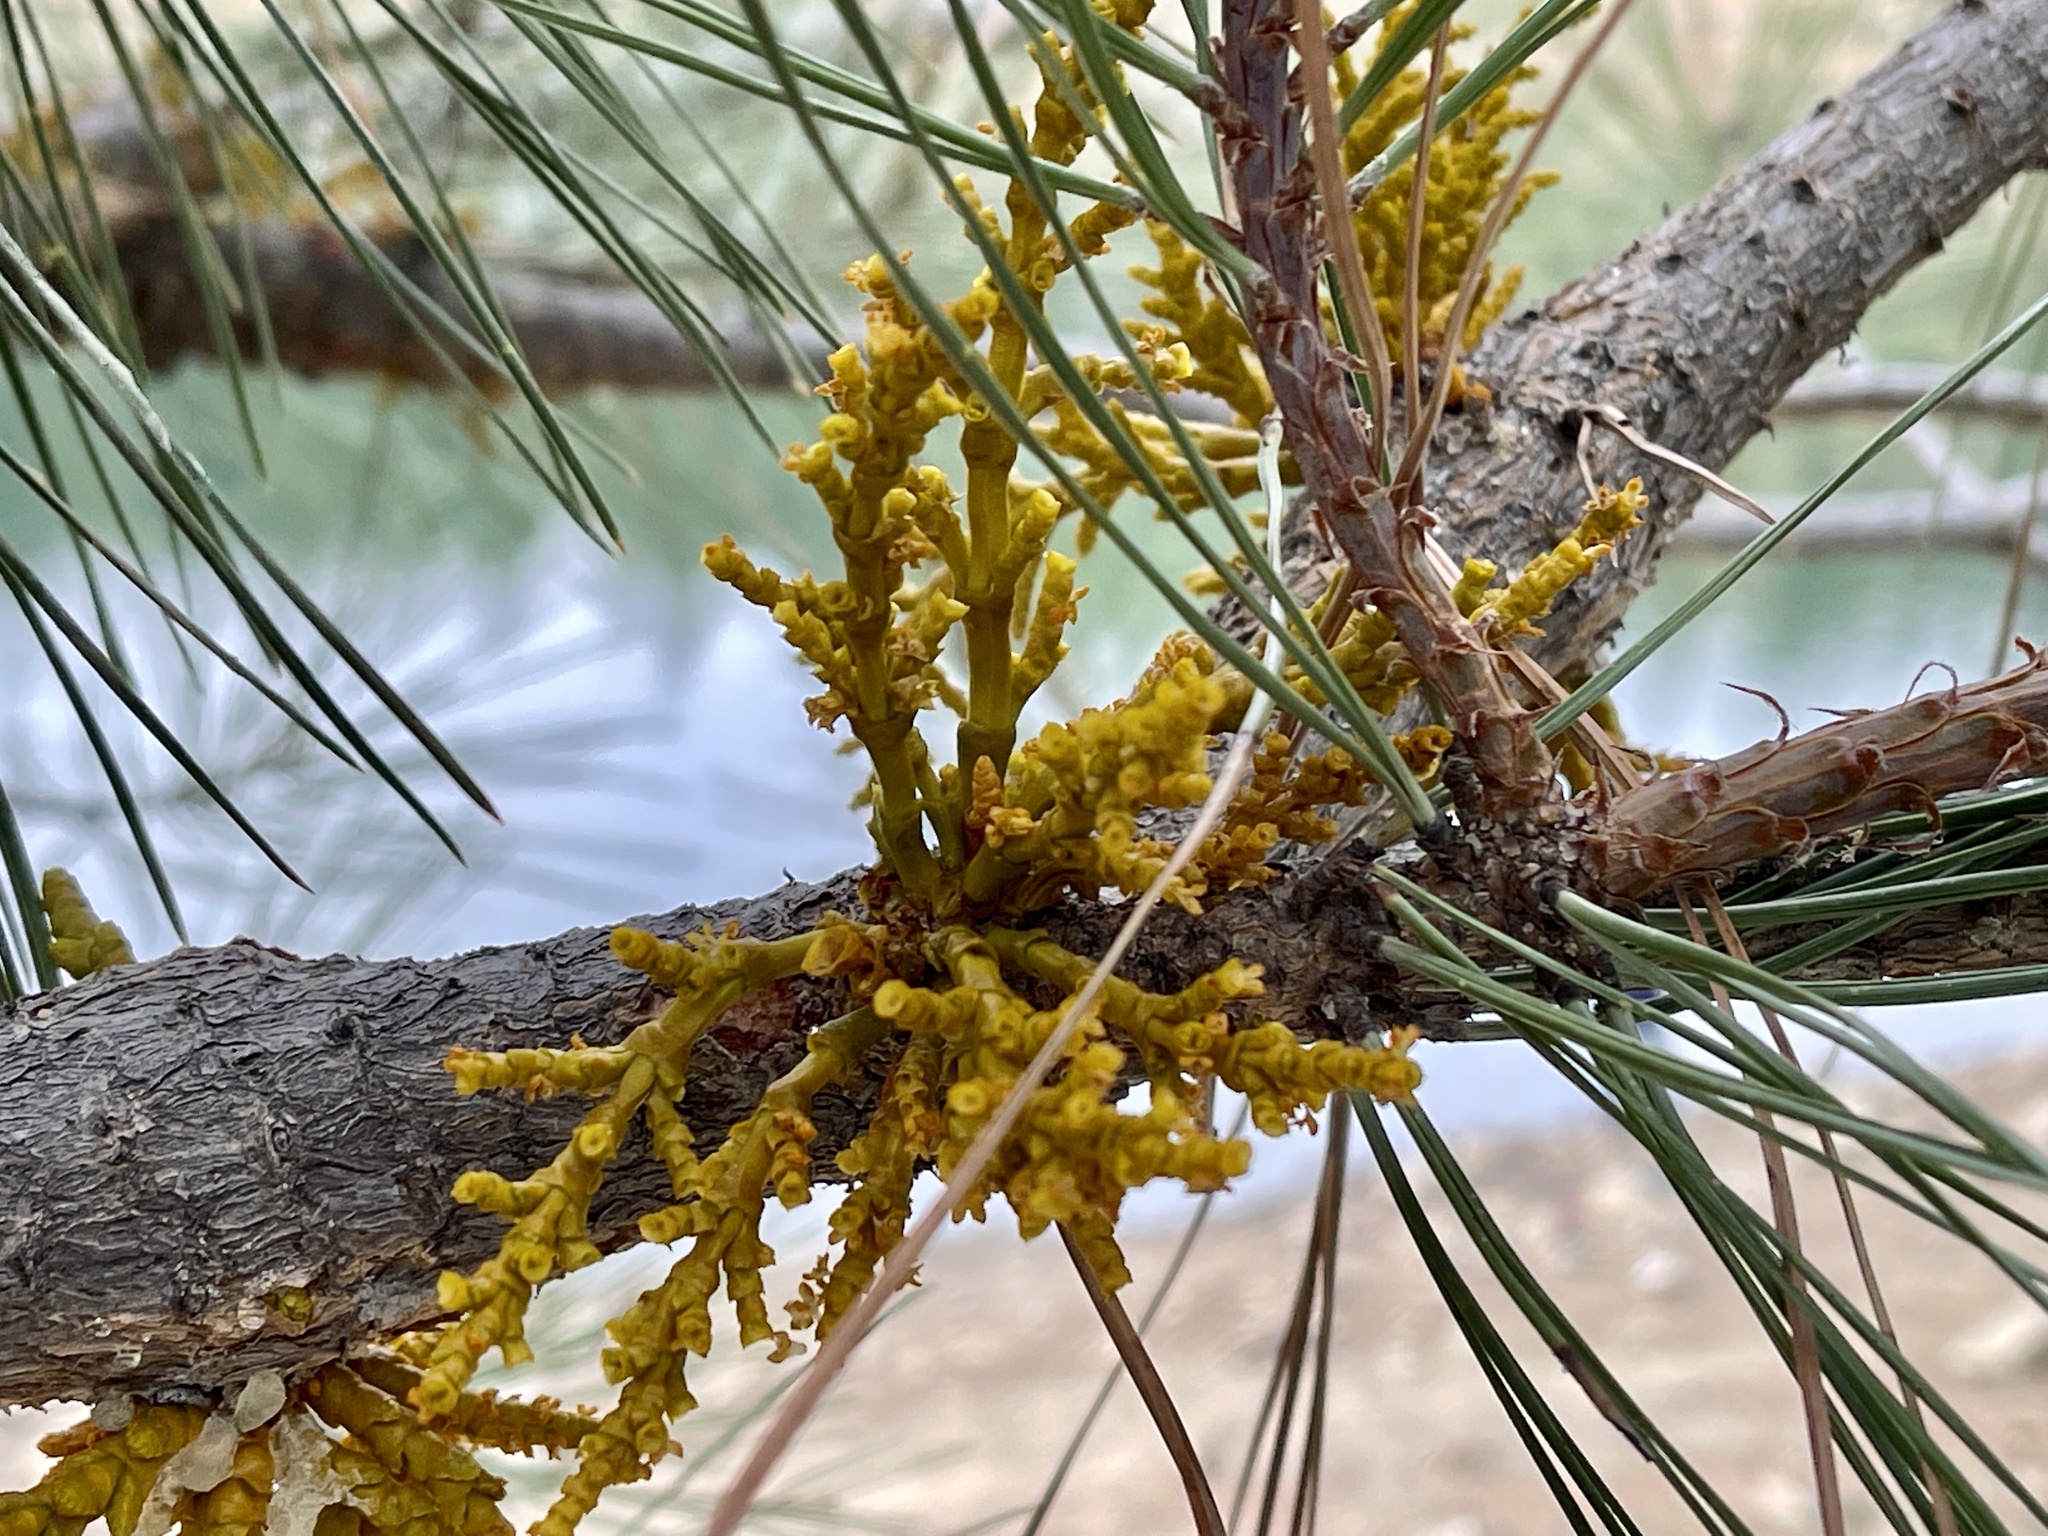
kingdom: Plantae
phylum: Tracheophyta
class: Magnoliopsida
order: Santalales
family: Viscaceae
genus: Arceuthobium
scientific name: Arceuthobium vaginatum
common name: Southwestern dwarf-mistletoe
